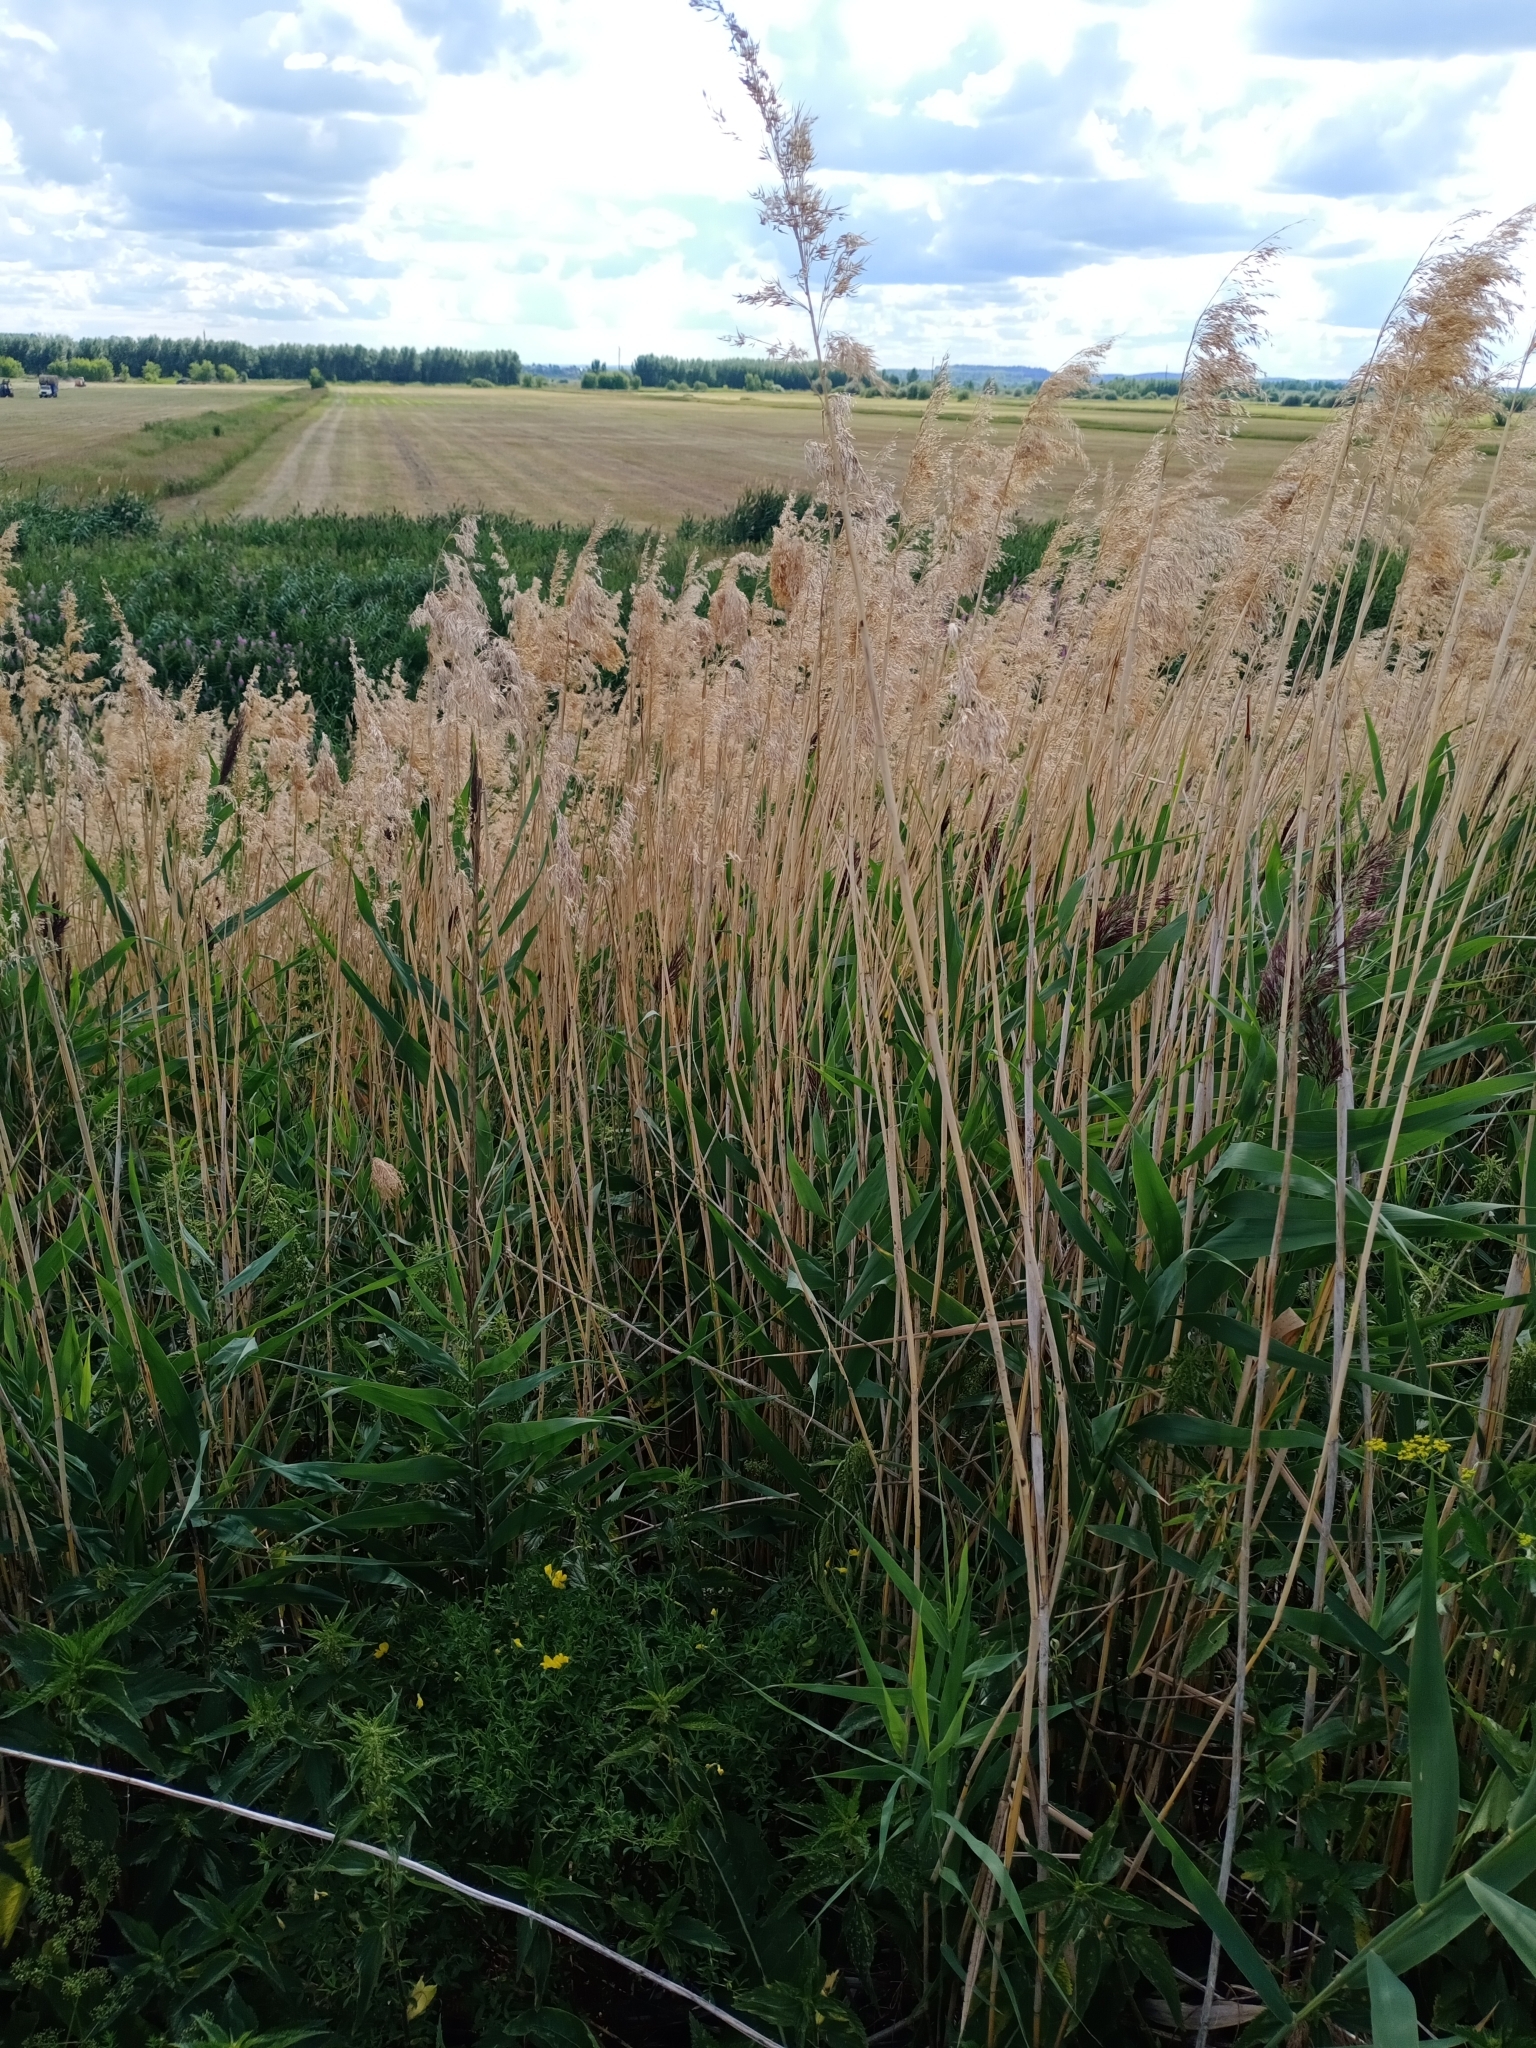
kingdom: Plantae
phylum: Tracheophyta
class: Liliopsida
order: Poales
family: Poaceae
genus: Phragmites
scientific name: Phragmites australis
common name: Common reed
